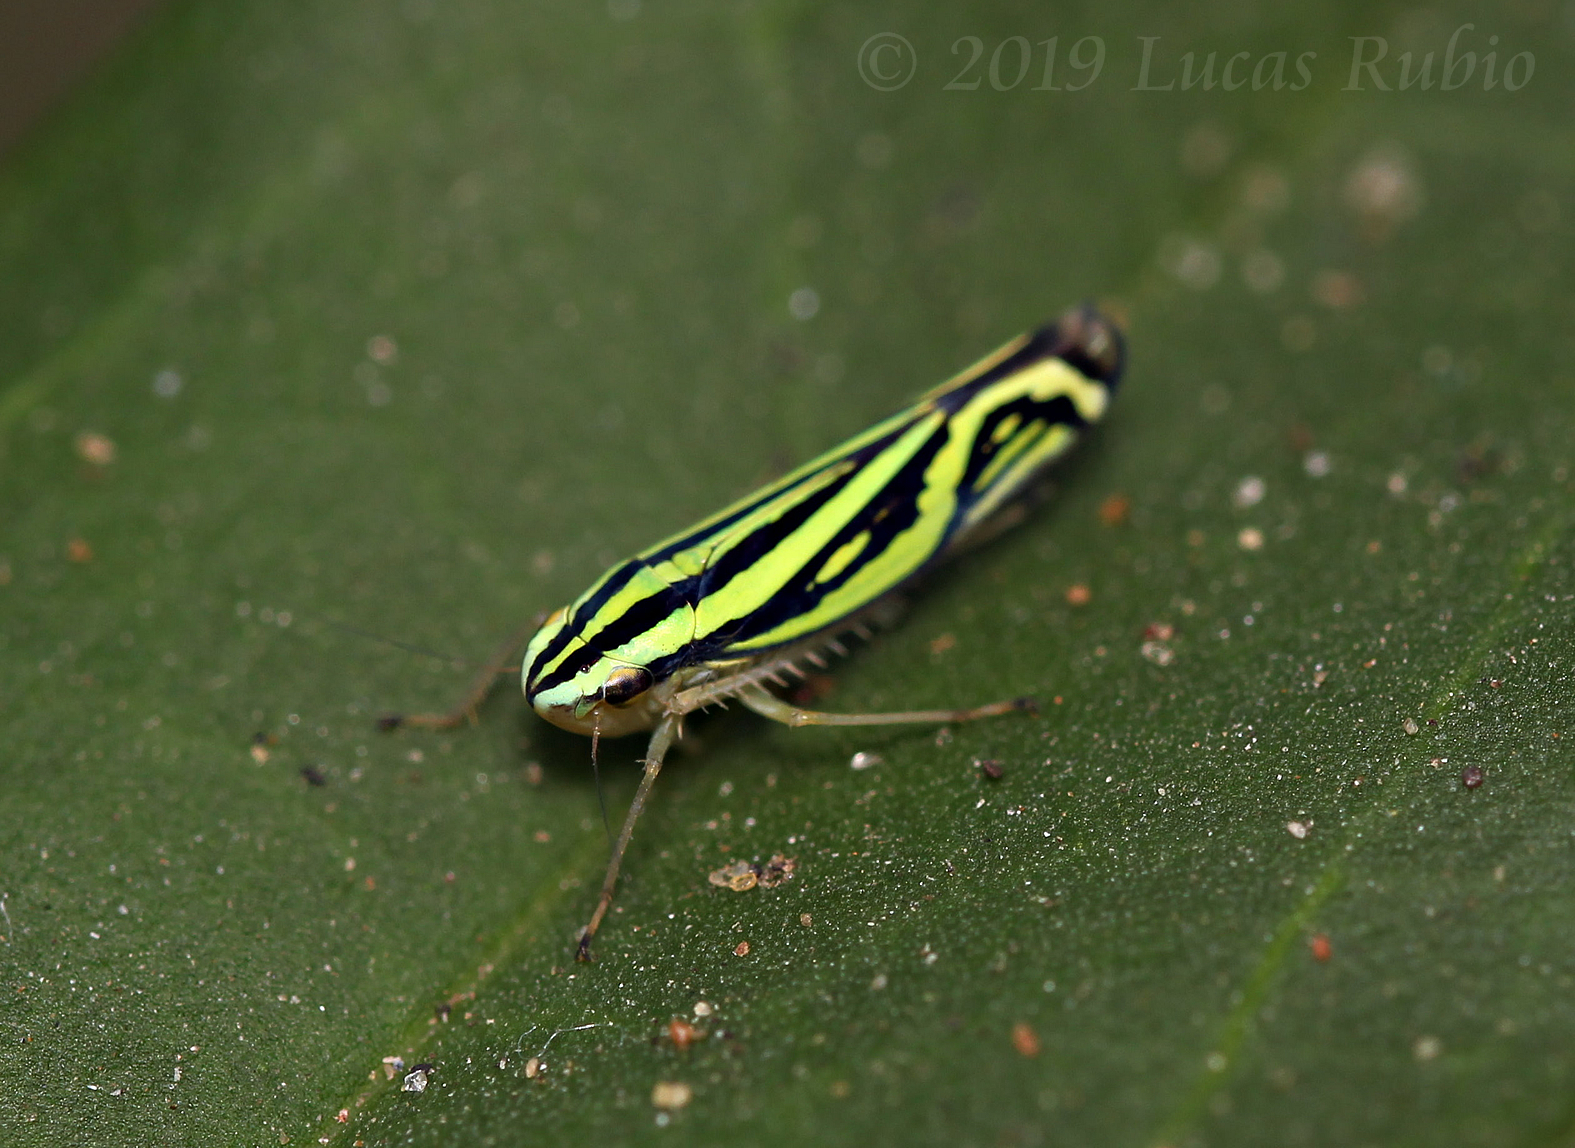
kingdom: Animalia
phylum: Arthropoda
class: Insecta
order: Hemiptera
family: Cicadellidae
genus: Sibovia
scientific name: Sibovia sagata
